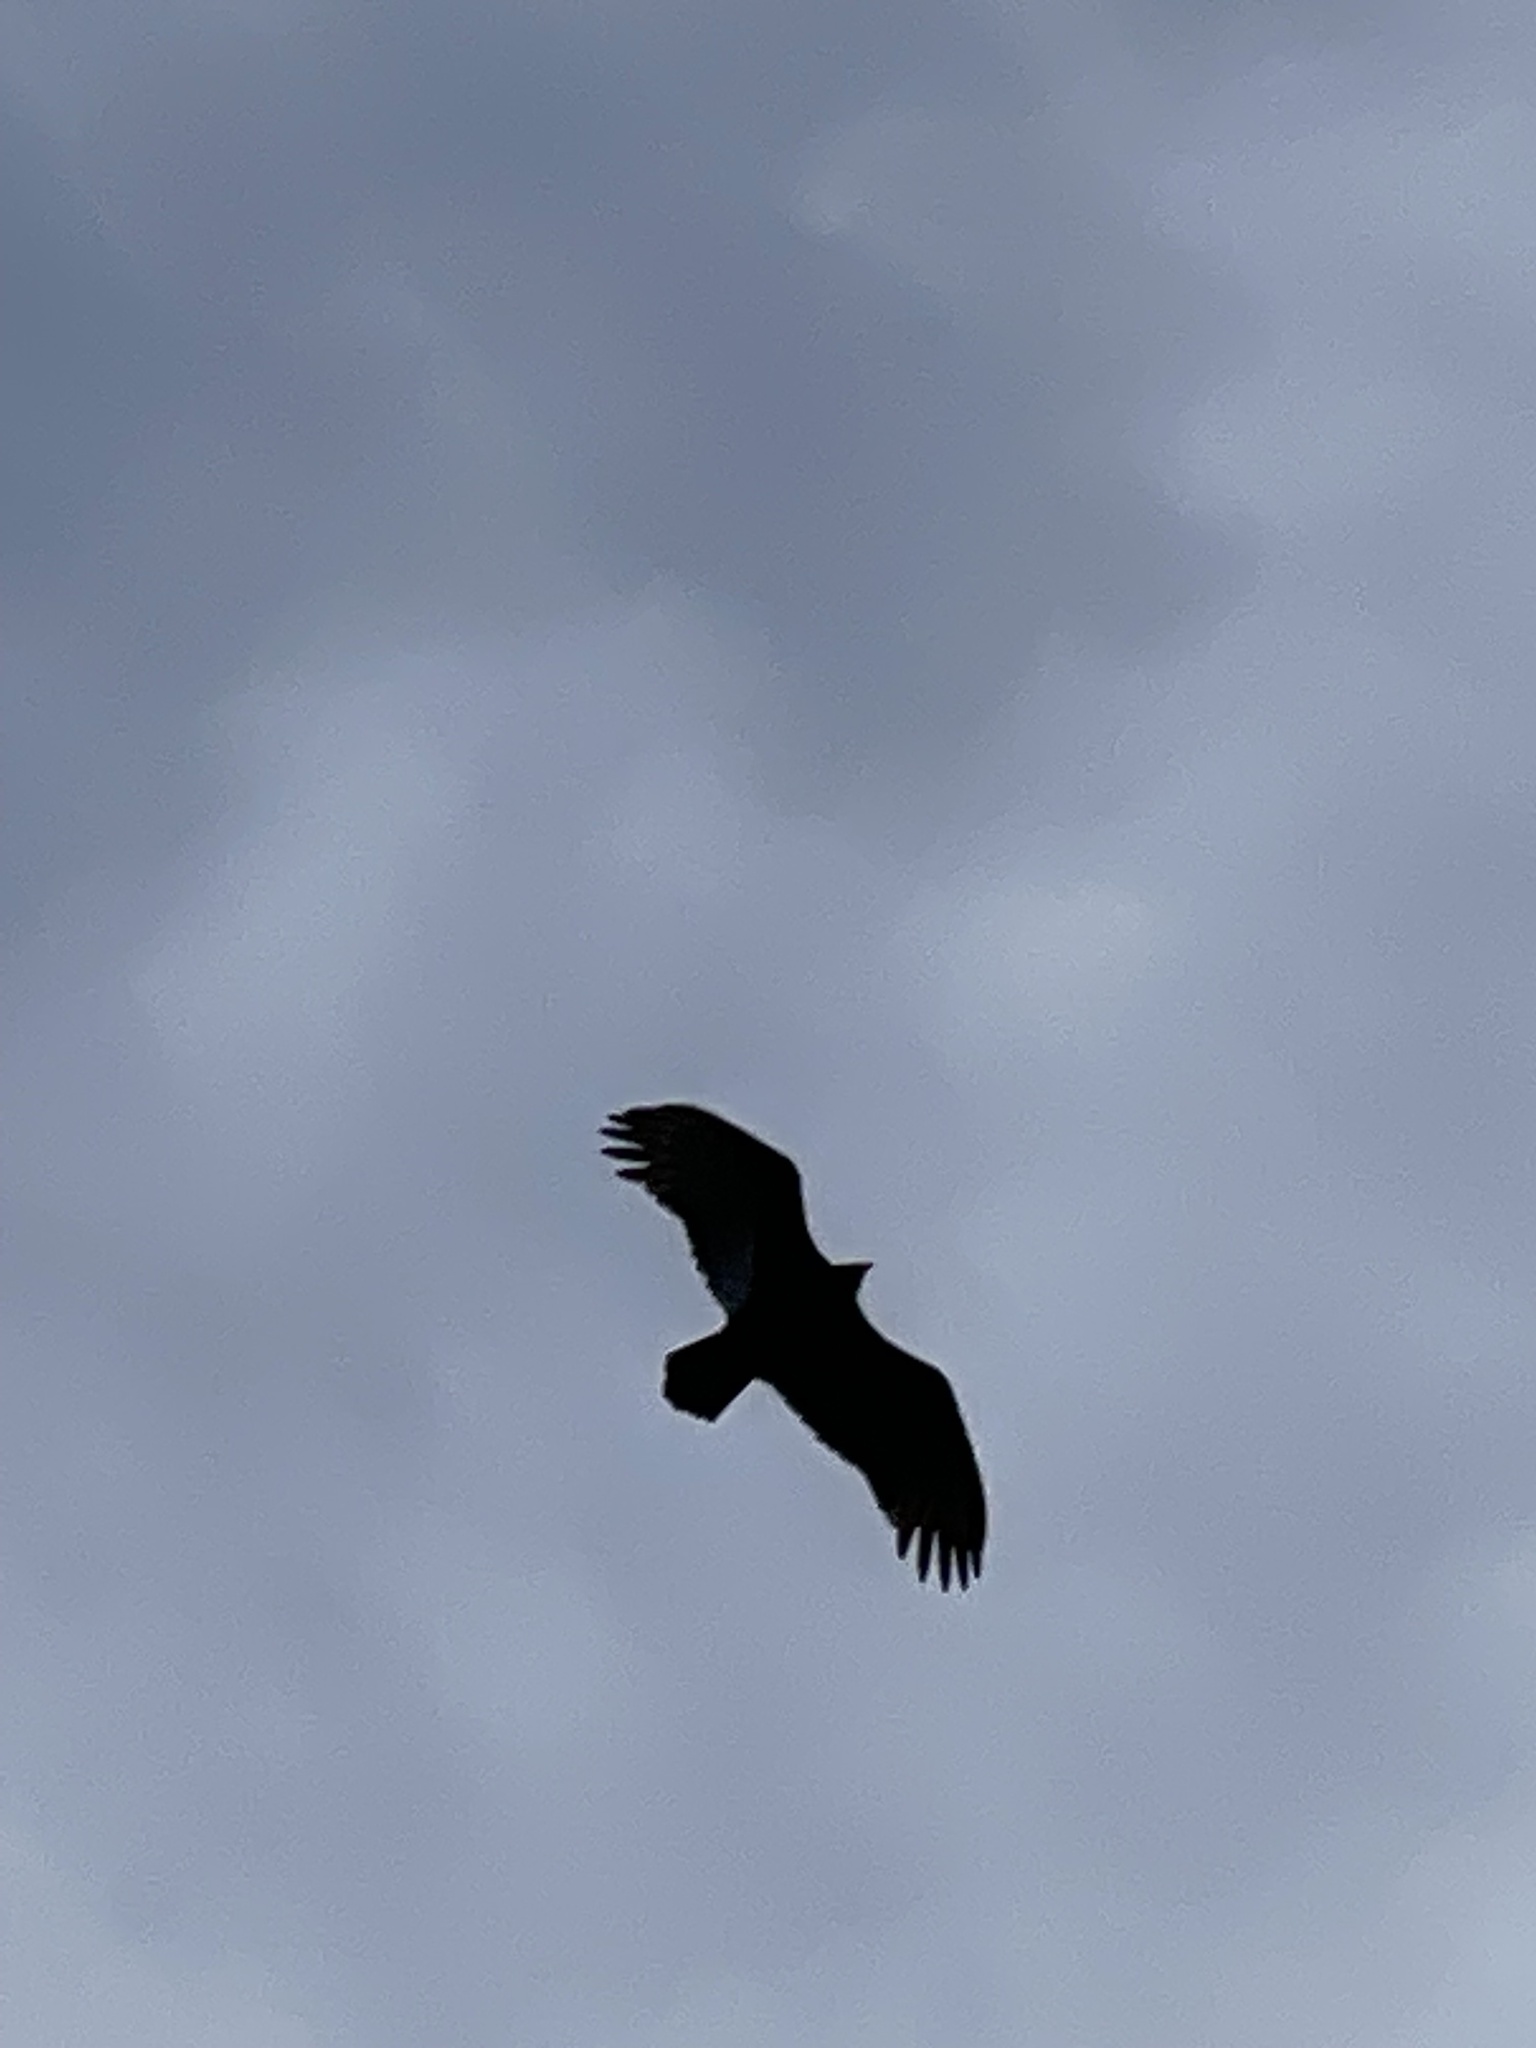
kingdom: Animalia
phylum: Chordata
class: Aves
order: Accipitriformes
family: Cathartidae
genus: Cathartes
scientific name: Cathartes aura
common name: Turkey vulture
